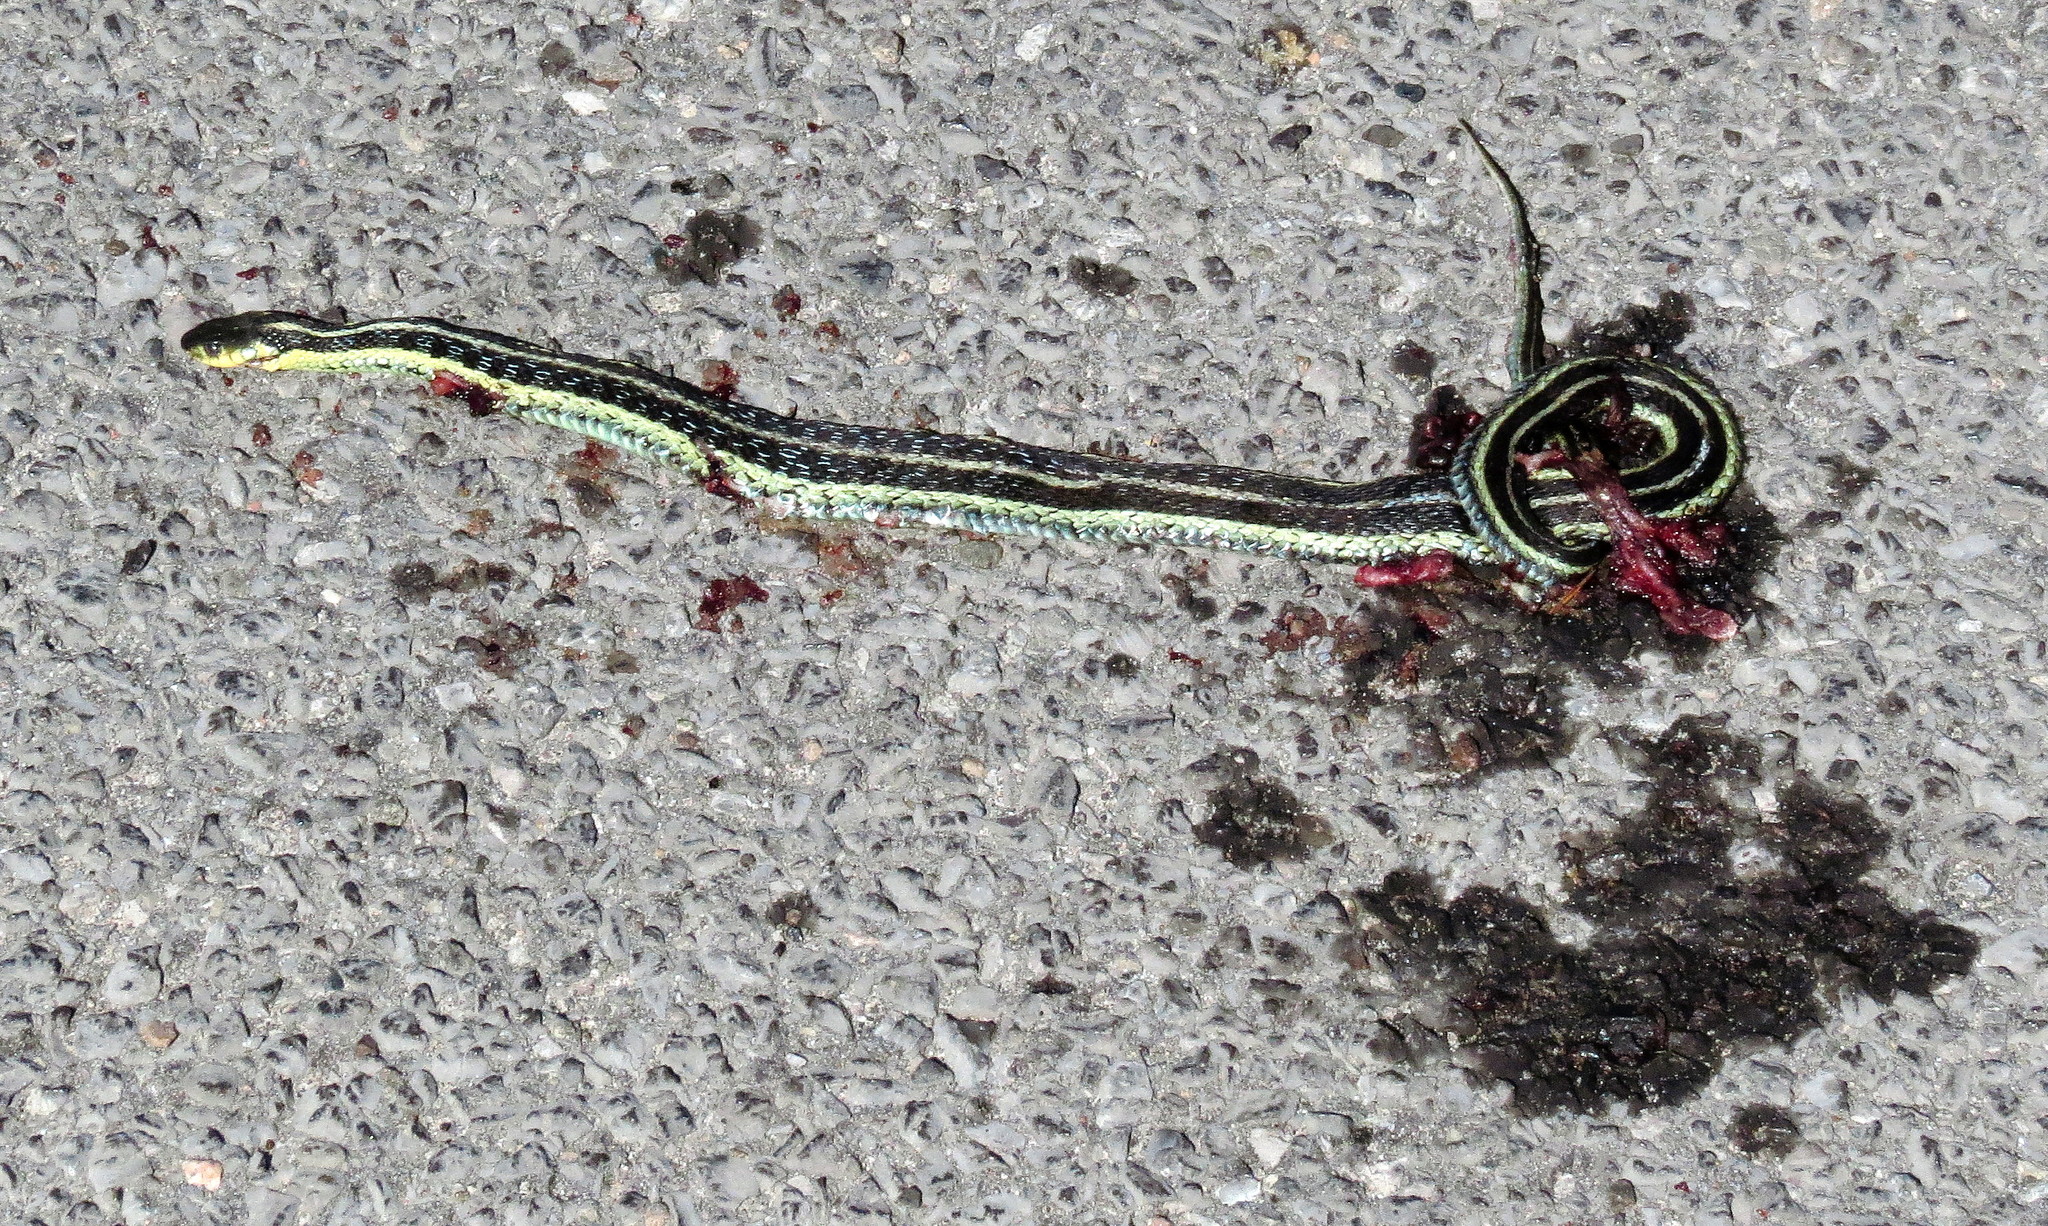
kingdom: Animalia
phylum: Chordata
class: Squamata
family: Colubridae
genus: Thamnophis
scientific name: Thamnophis sirtalis
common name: Common garter snake
